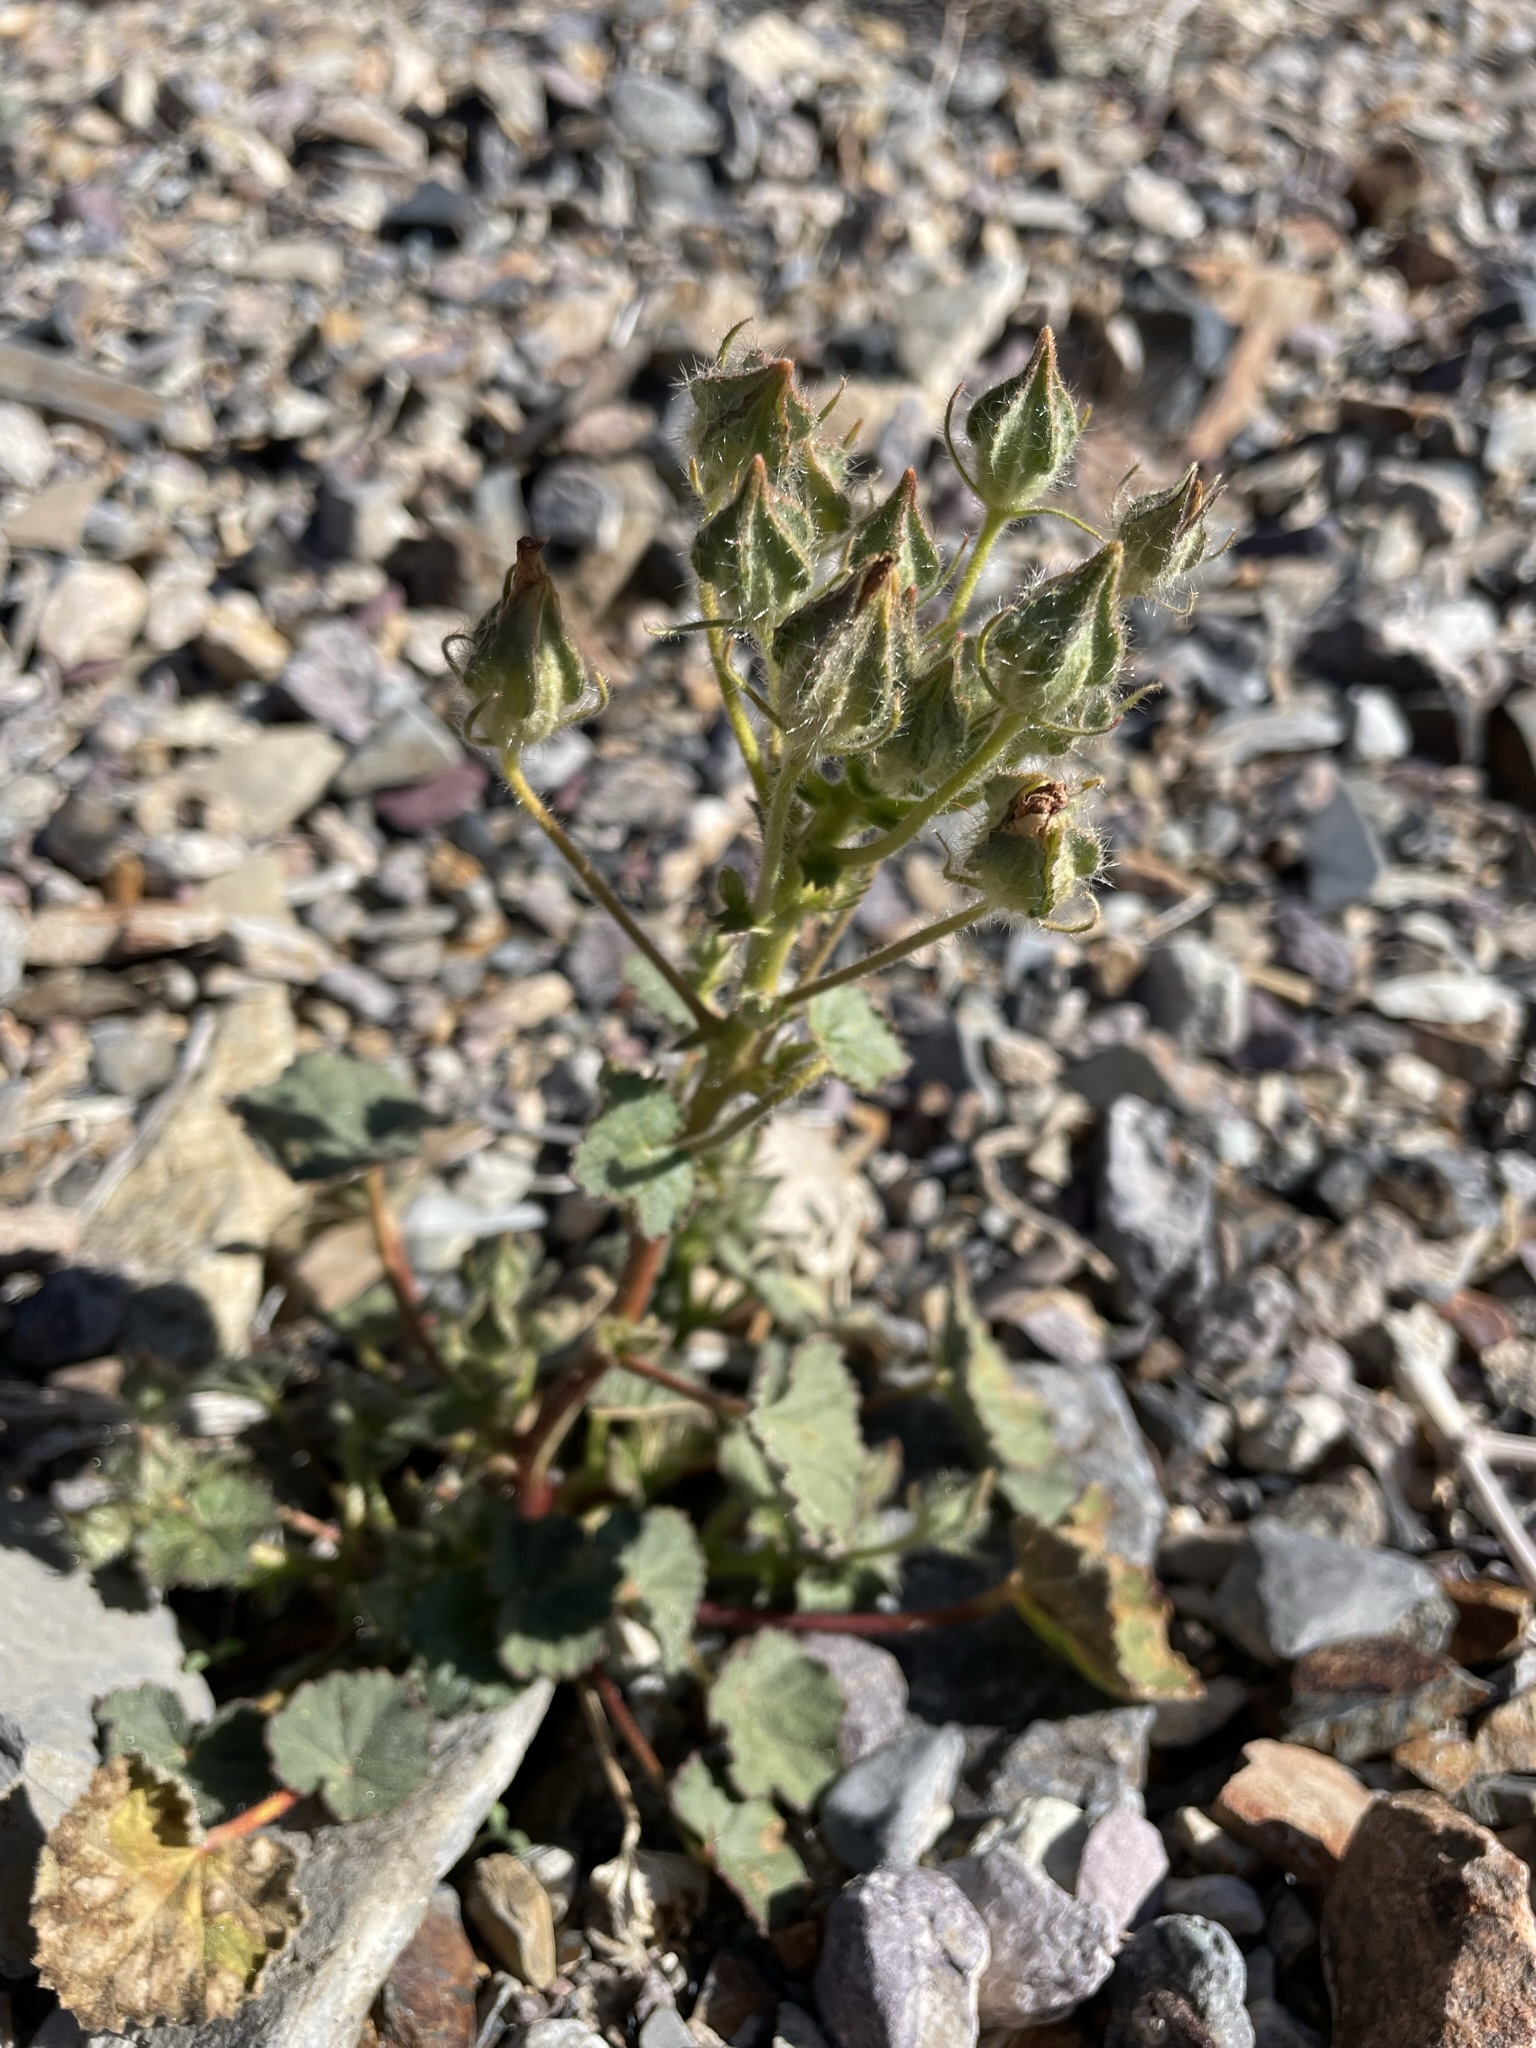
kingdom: Plantae
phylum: Tracheophyta
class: Magnoliopsida
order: Malvales
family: Malvaceae
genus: Eremalche
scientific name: Eremalche rotundifolia
